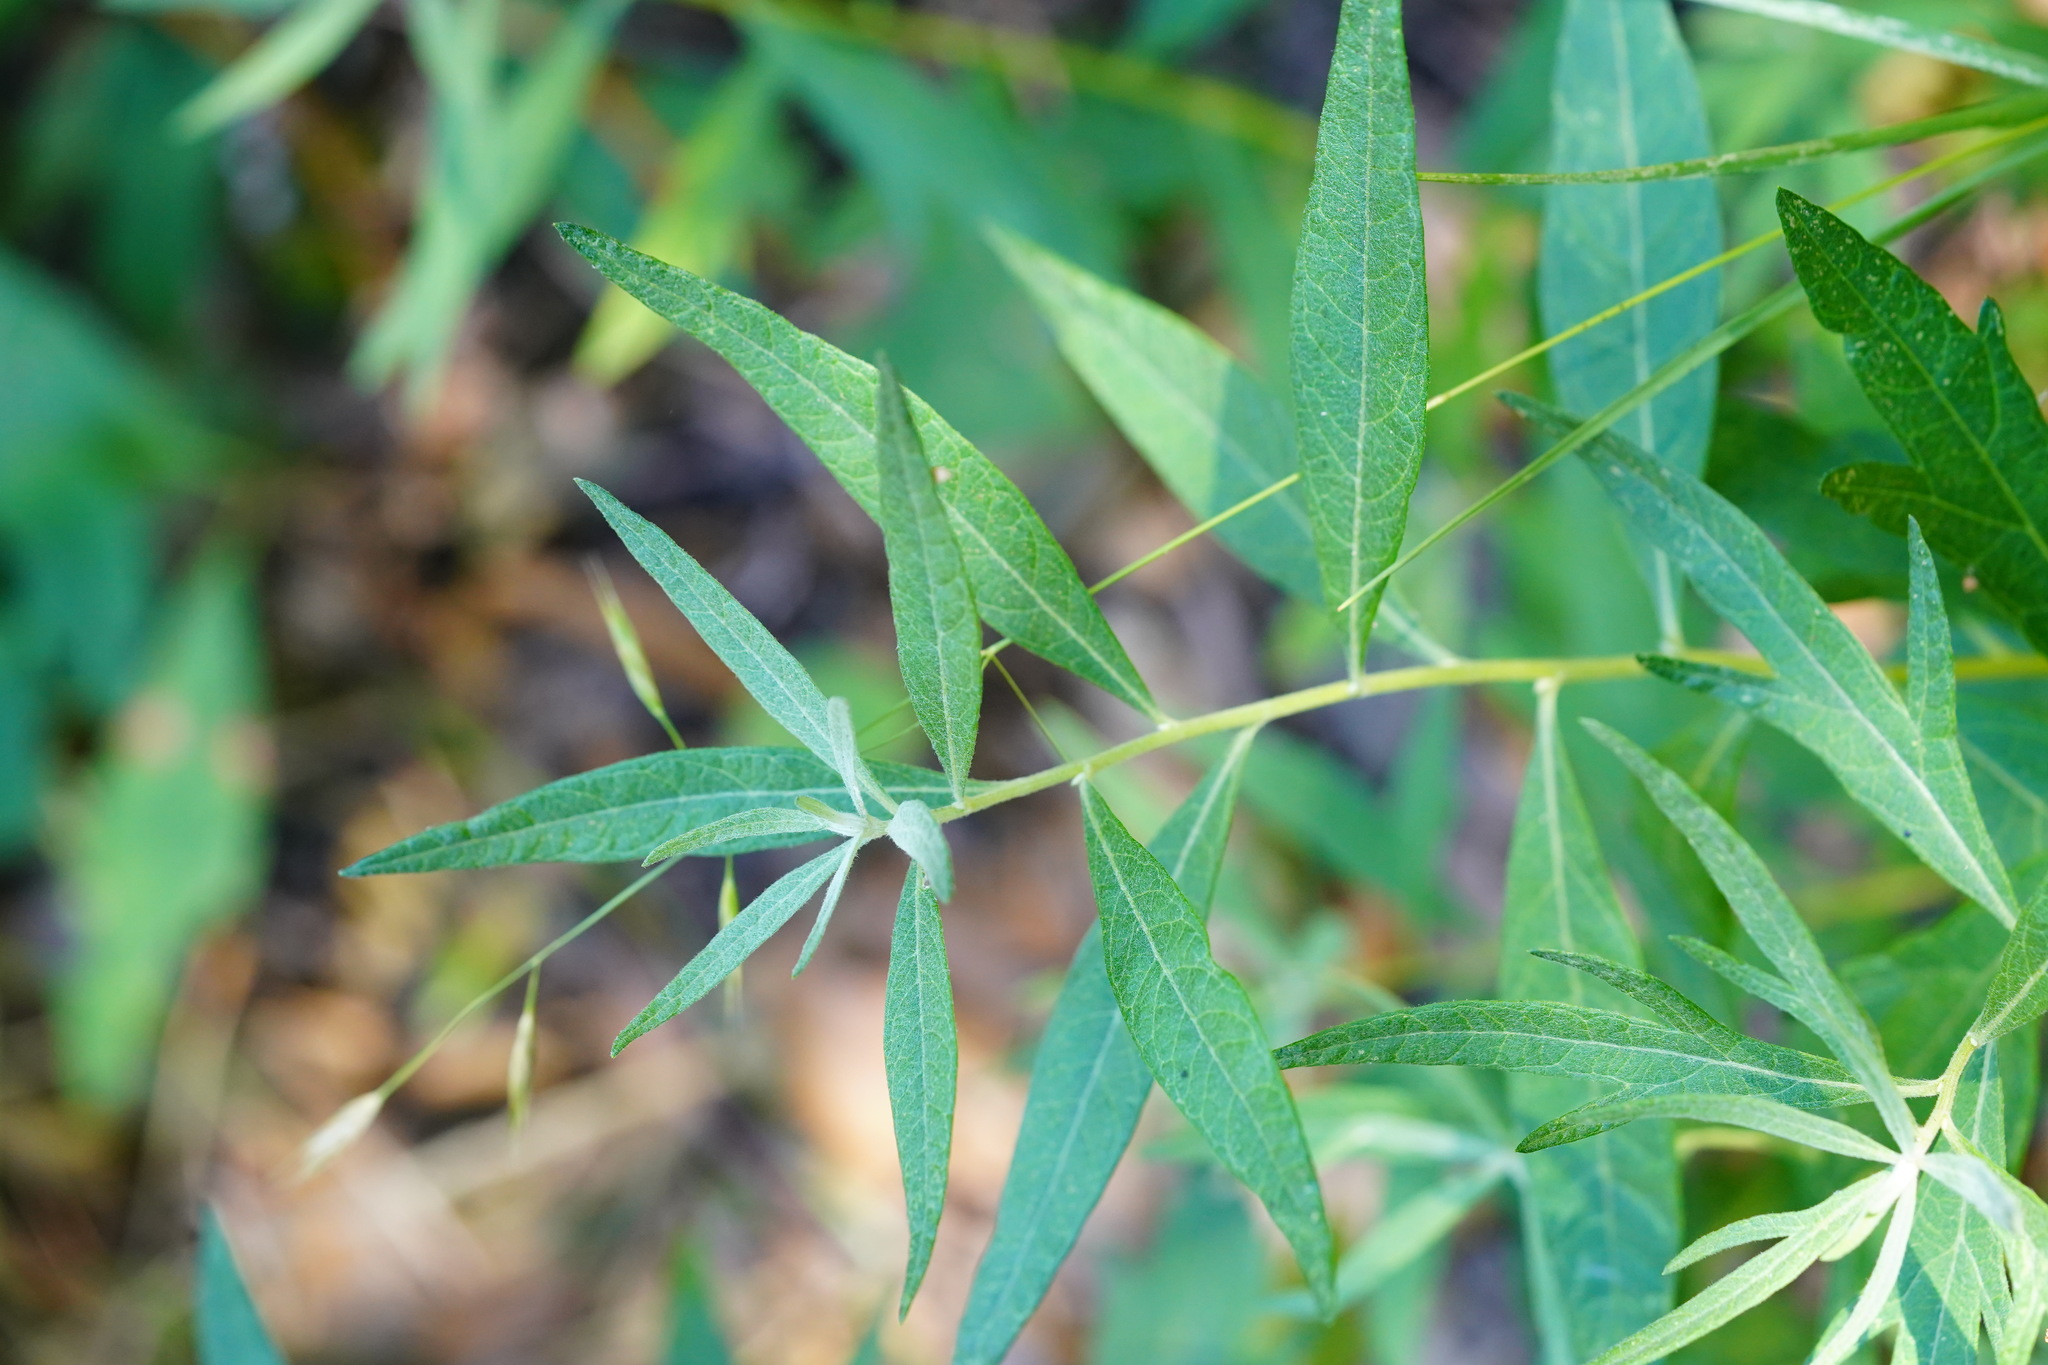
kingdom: Plantae
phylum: Tracheophyta
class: Magnoliopsida
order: Asterales
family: Asteraceae
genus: Artemisia
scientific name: Artemisia douglasiana
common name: Northwest mugwort
